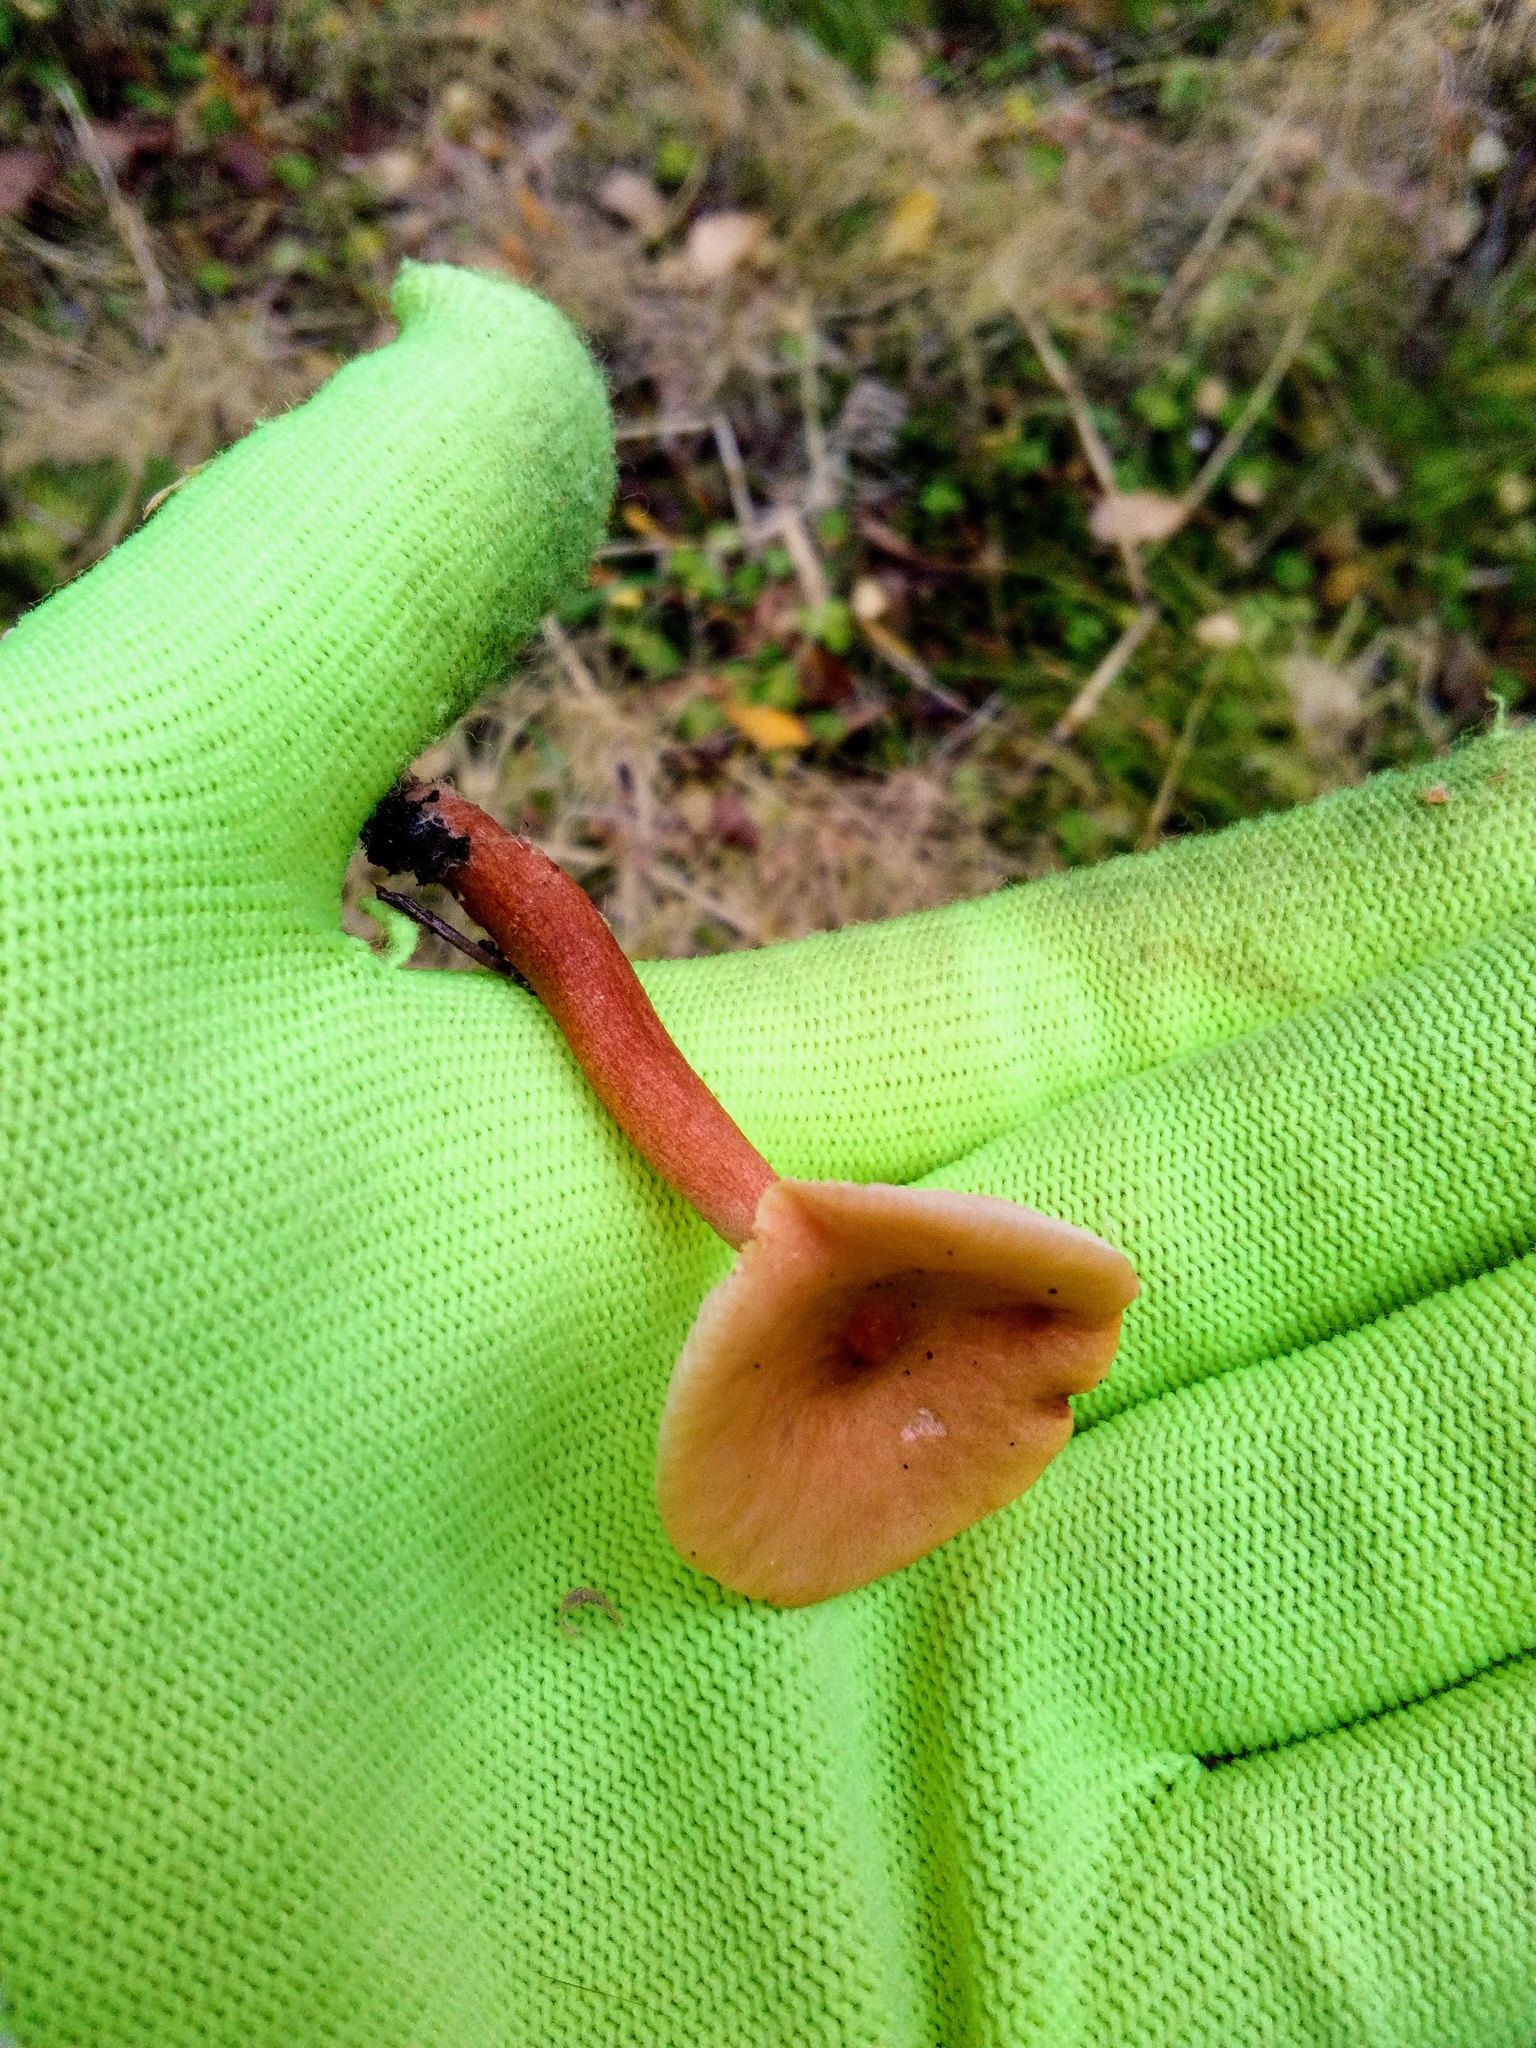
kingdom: Fungi
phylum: Basidiomycota
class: Agaricomycetes
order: Russulales
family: Russulaceae
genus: Lactarius
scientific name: Lactarius aurantiacus
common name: Orange milkcap
